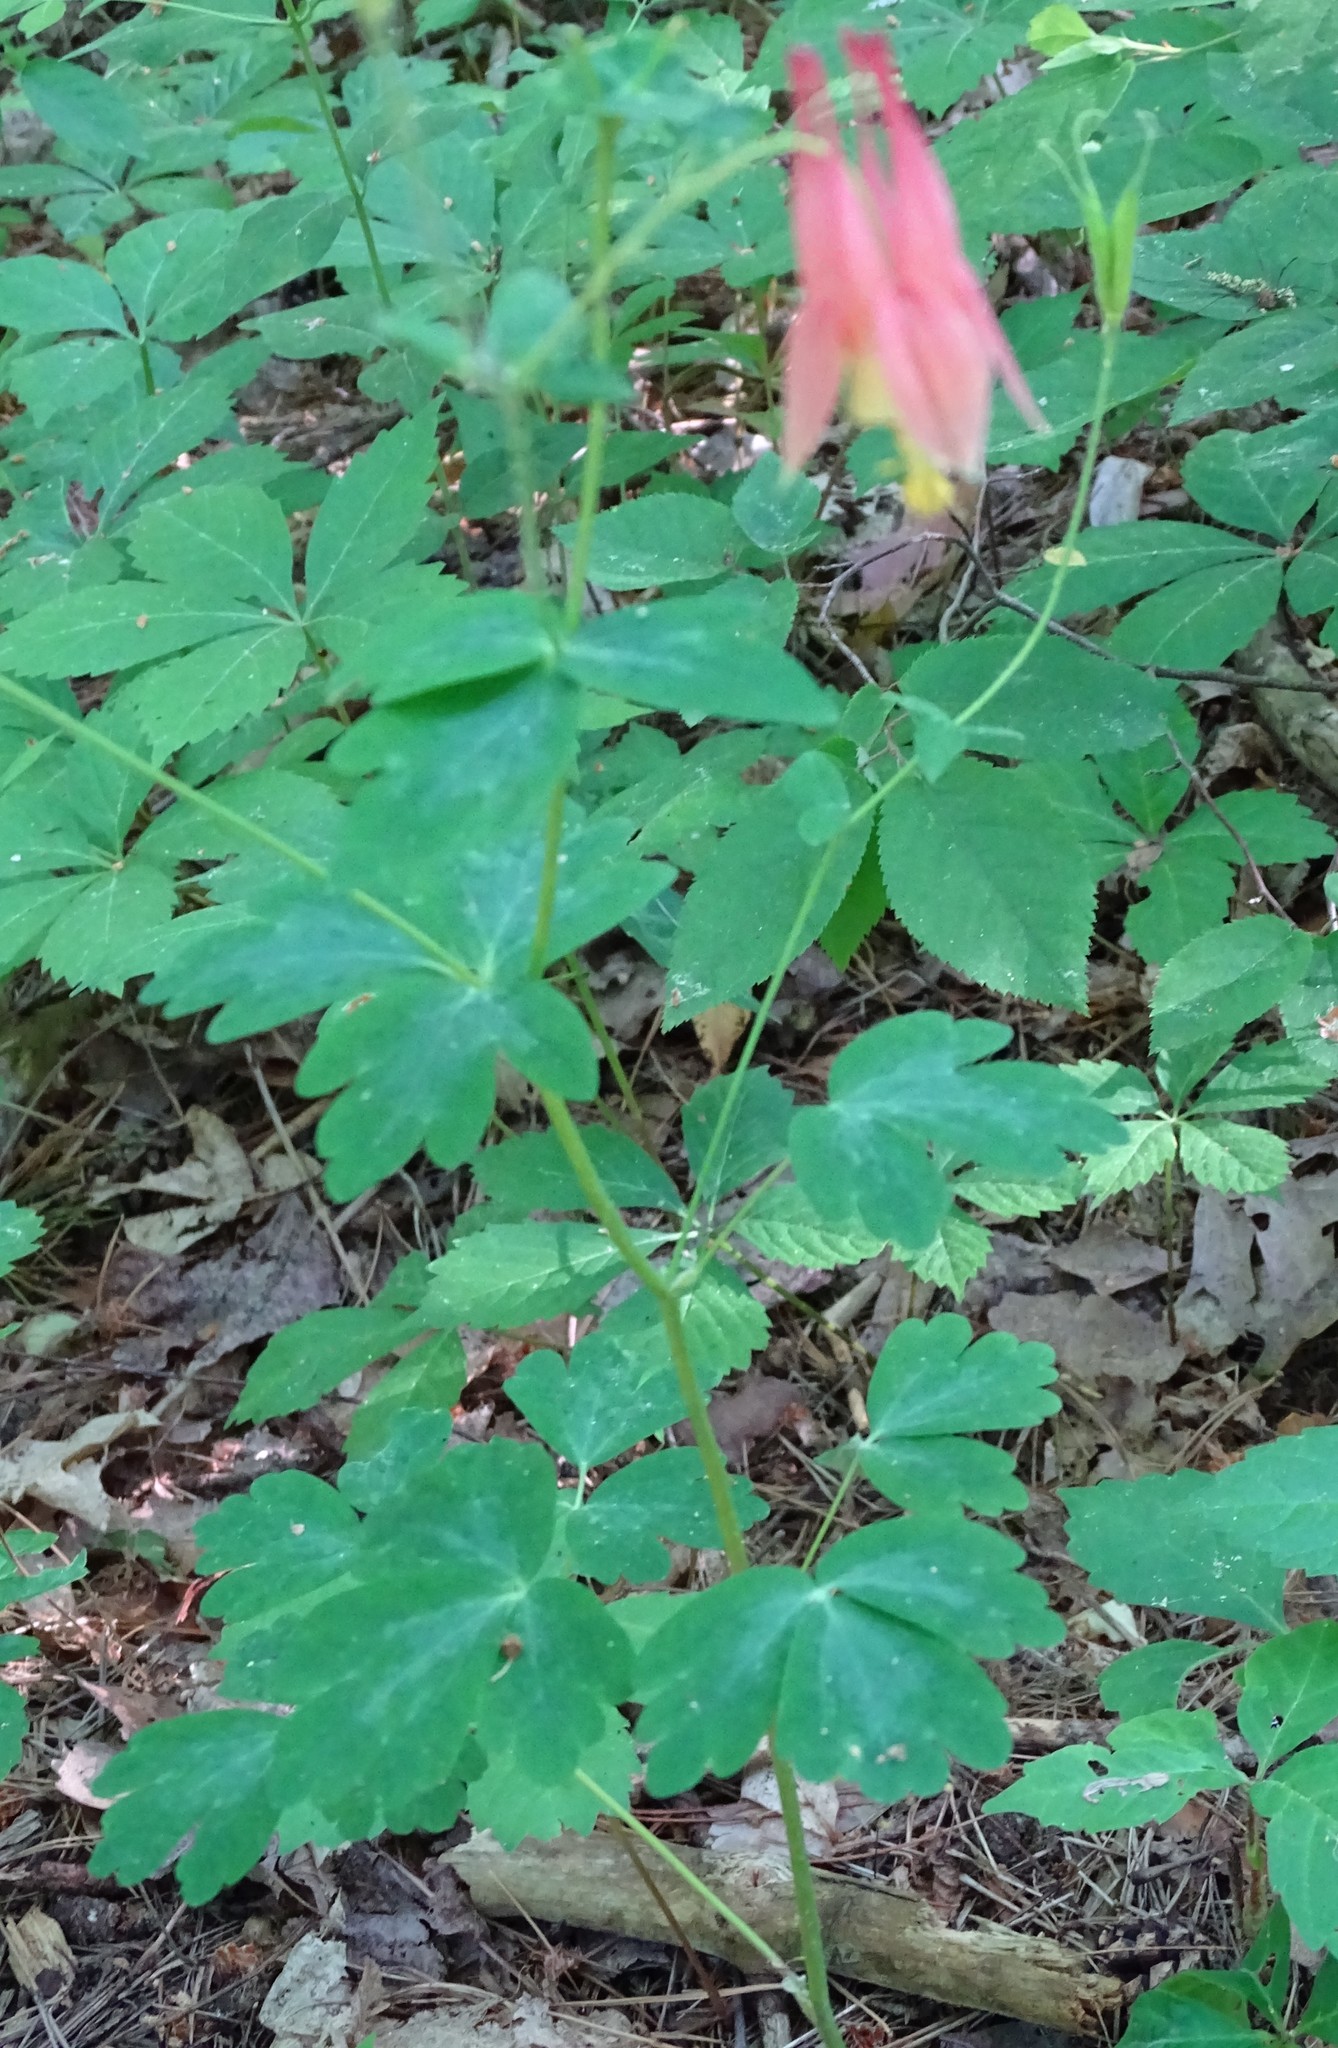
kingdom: Plantae
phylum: Tracheophyta
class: Magnoliopsida
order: Ranunculales
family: Ranunculaceae
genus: Aquilegia
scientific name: Aquilegia canadensis
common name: American columbine
